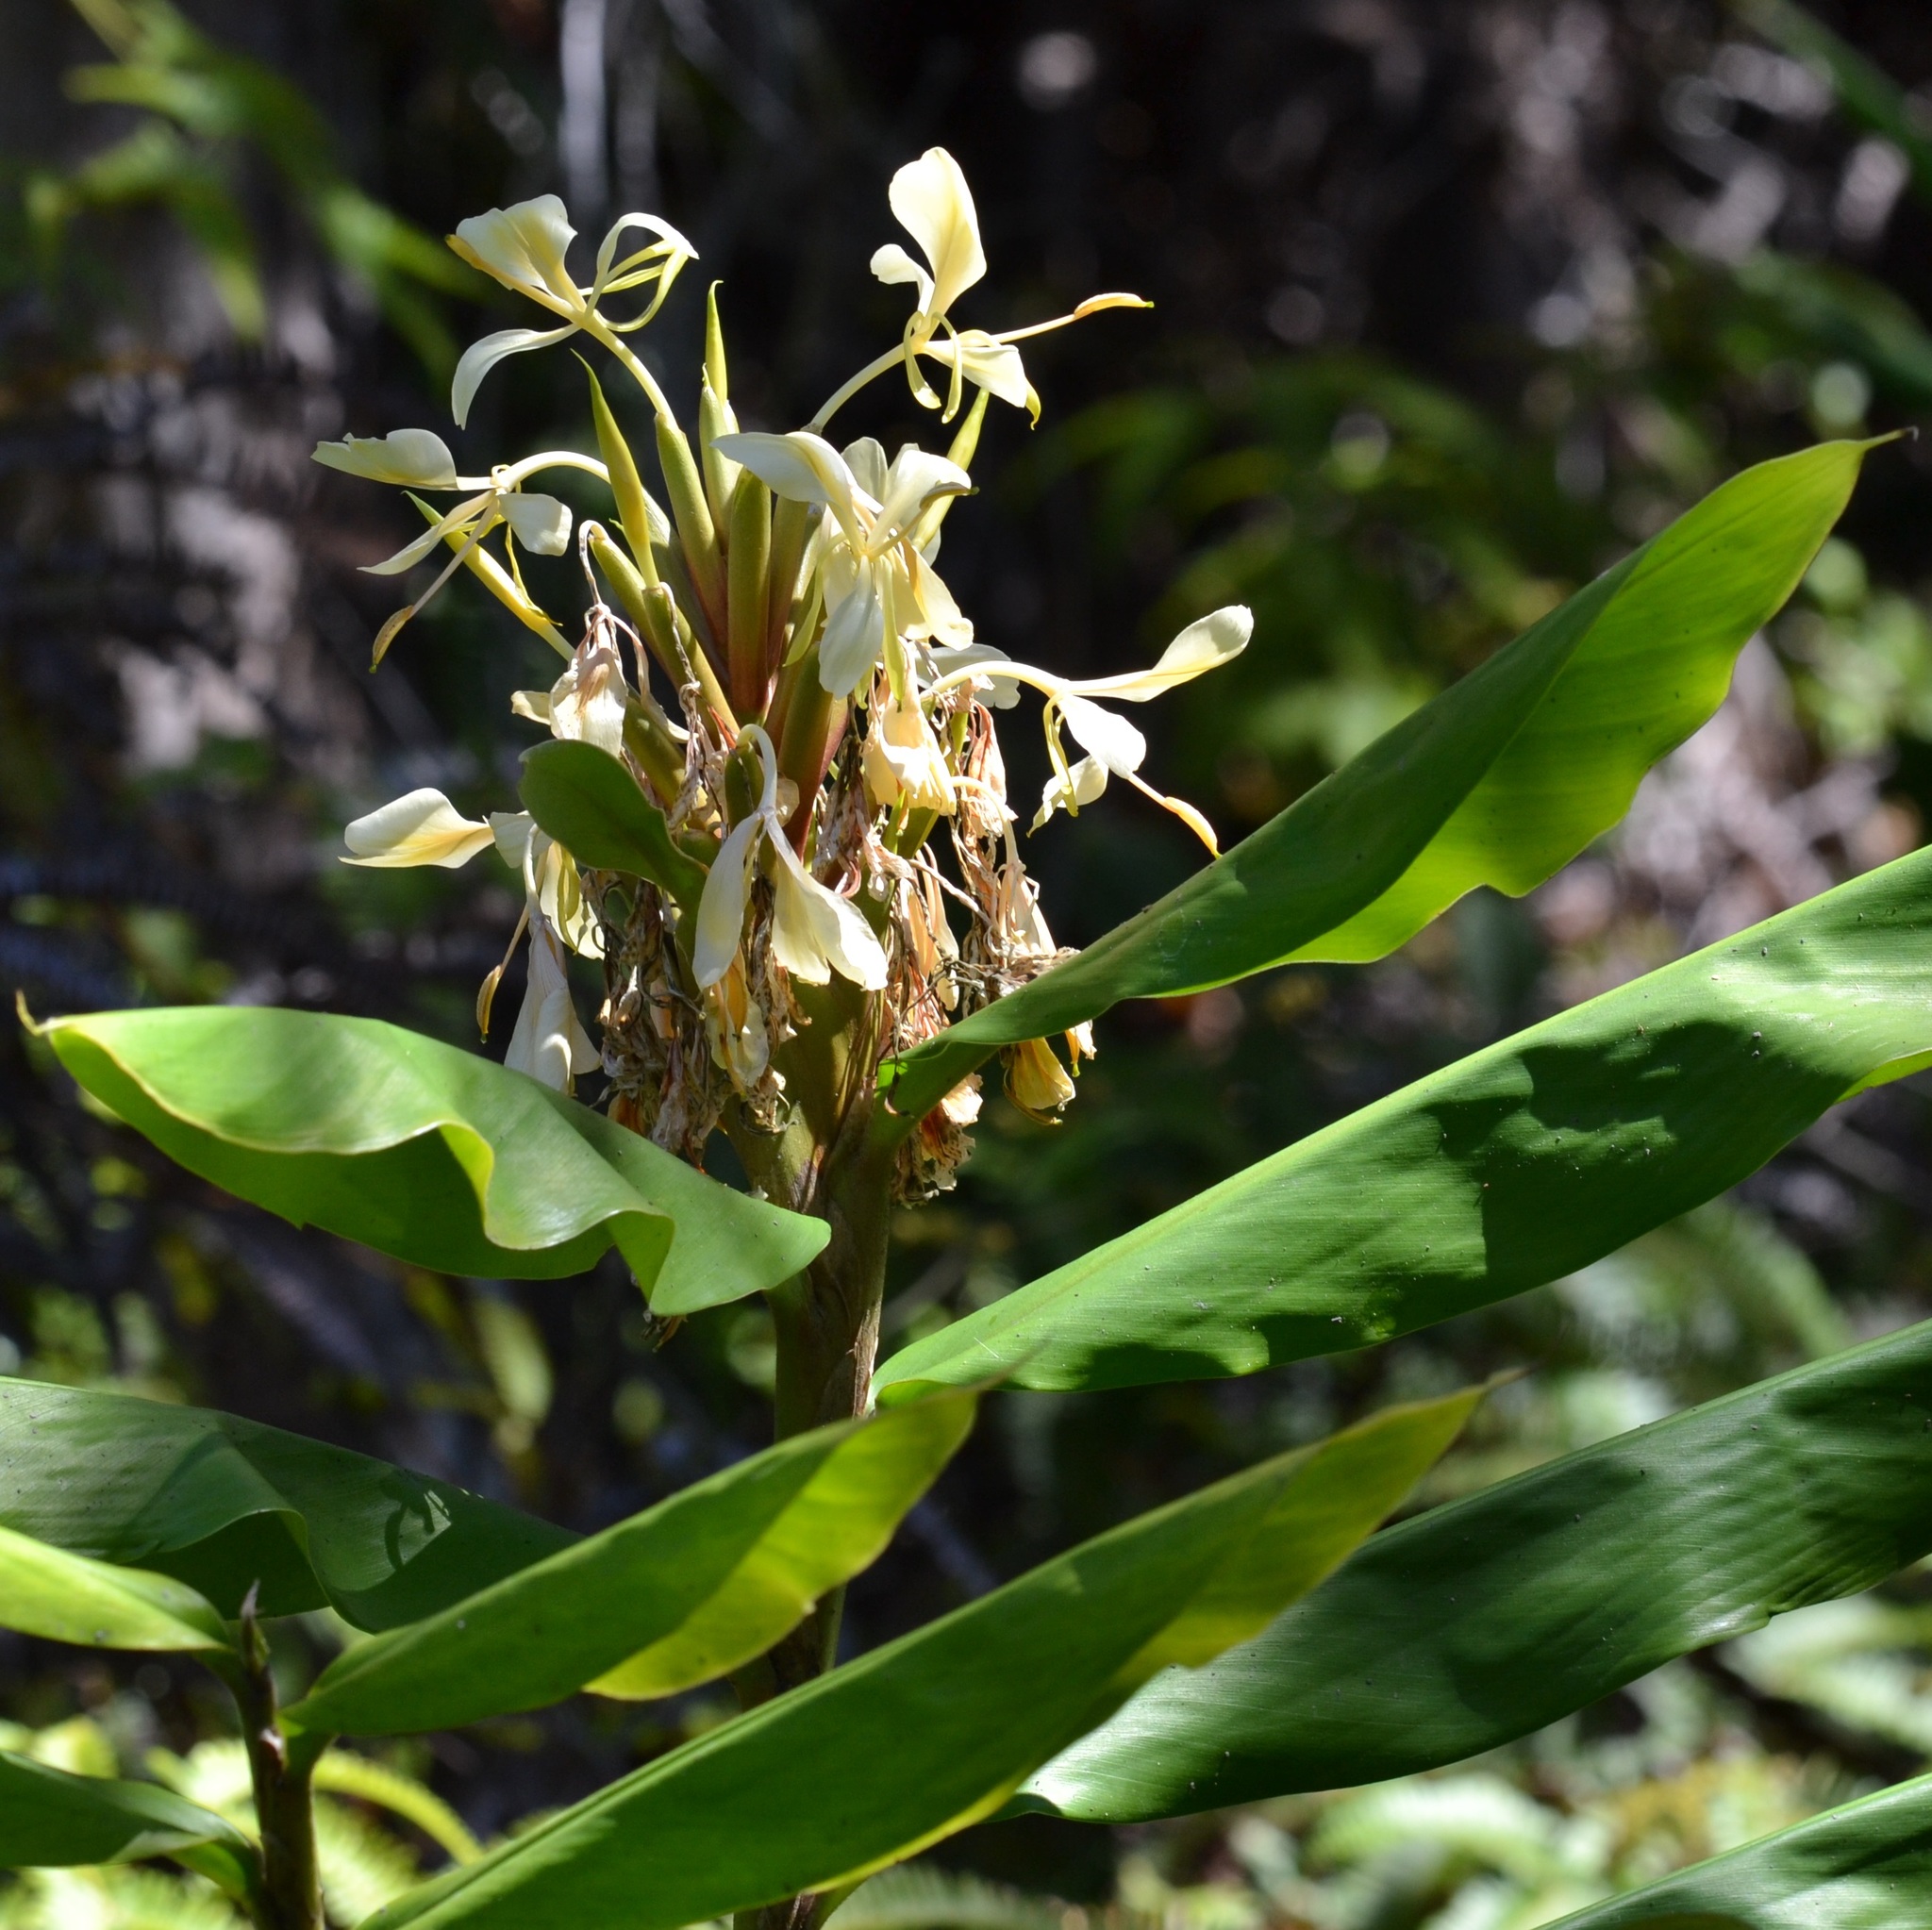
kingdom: Plantae
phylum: Tracheophyta
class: Liliopsida
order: Zingiberales
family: Zingiberaceae
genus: Hedychium
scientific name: Hedychium flavescens
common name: Yellow ginger
